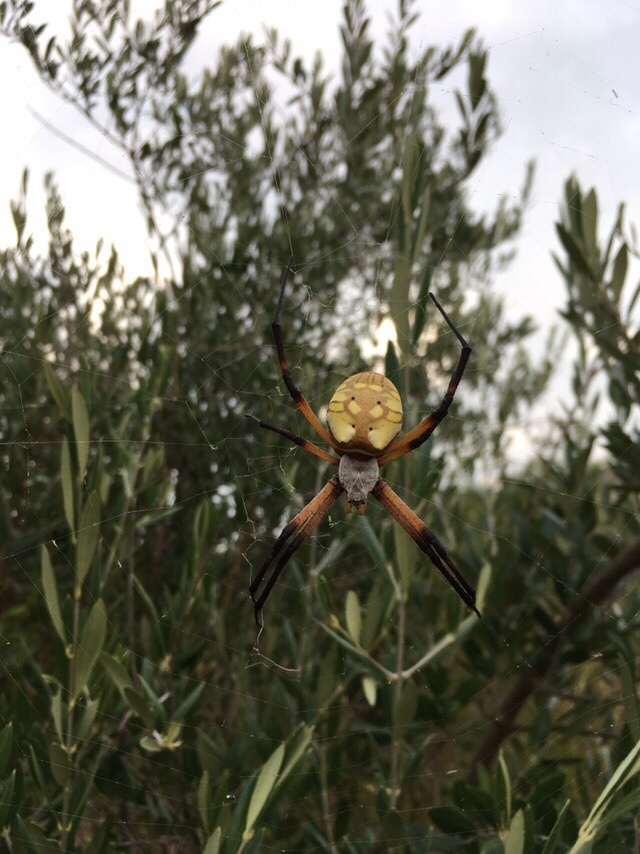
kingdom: Animalia
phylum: Arthropoda
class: Arachnida
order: Araneae
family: Araneidae
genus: Argiope
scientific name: Argiope aurantia
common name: Orb weavers
